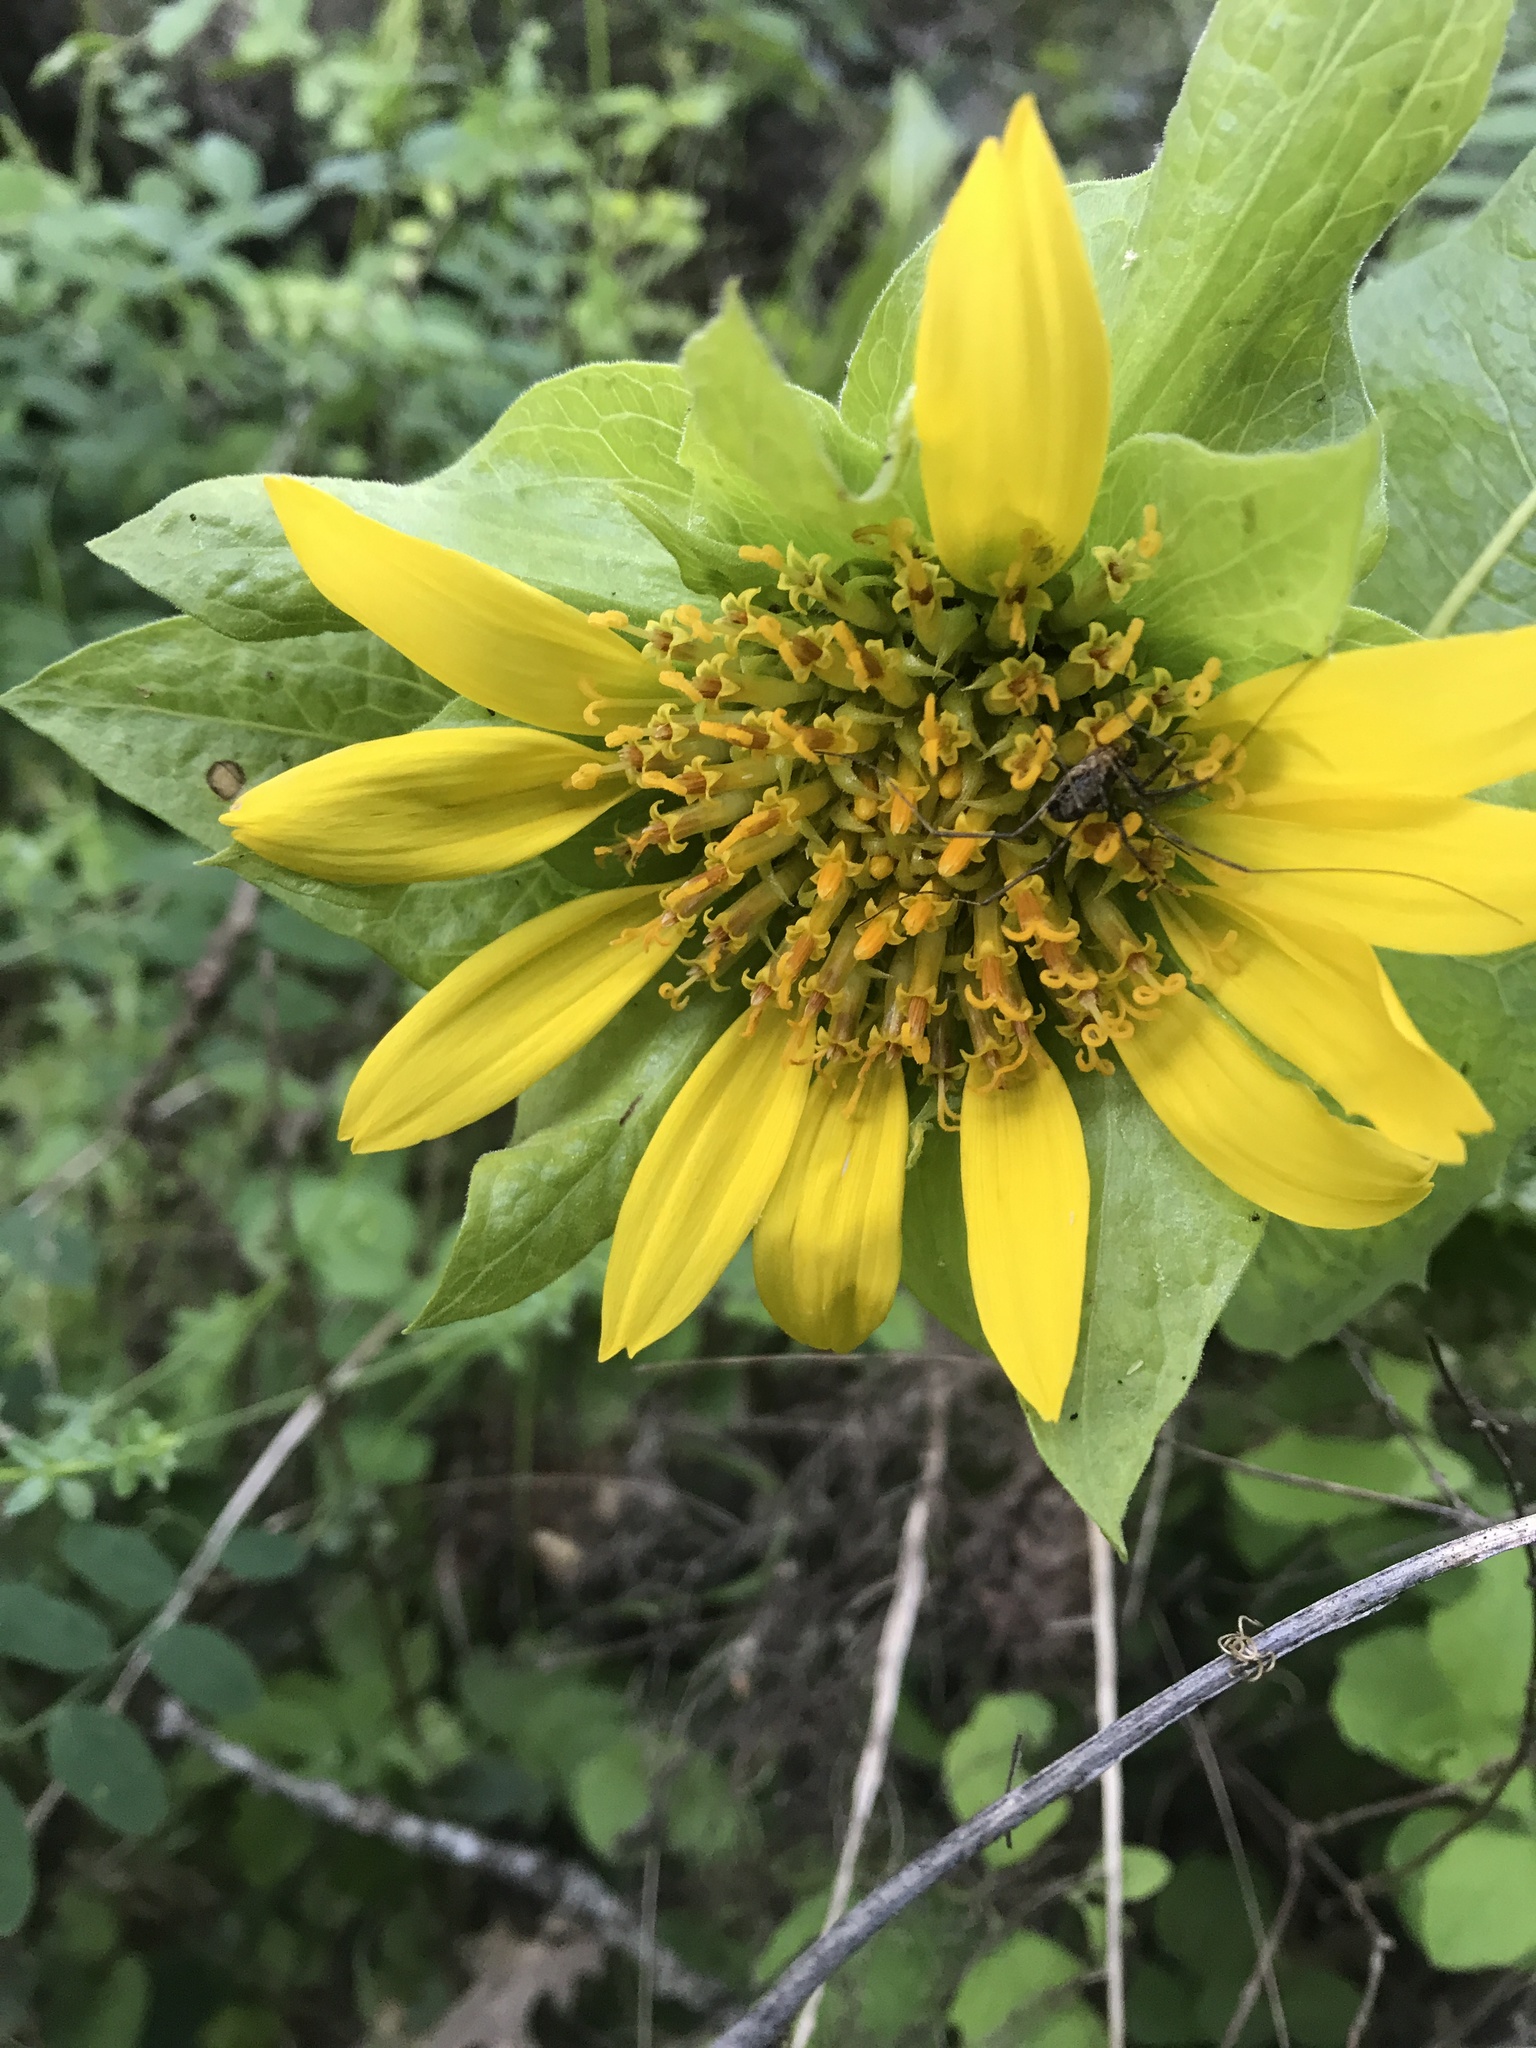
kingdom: Plantae
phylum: Tracheophyta
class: Magnoliopsida
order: Asterales
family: Asteraceae
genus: Wyethia
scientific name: Wyethia glabra
